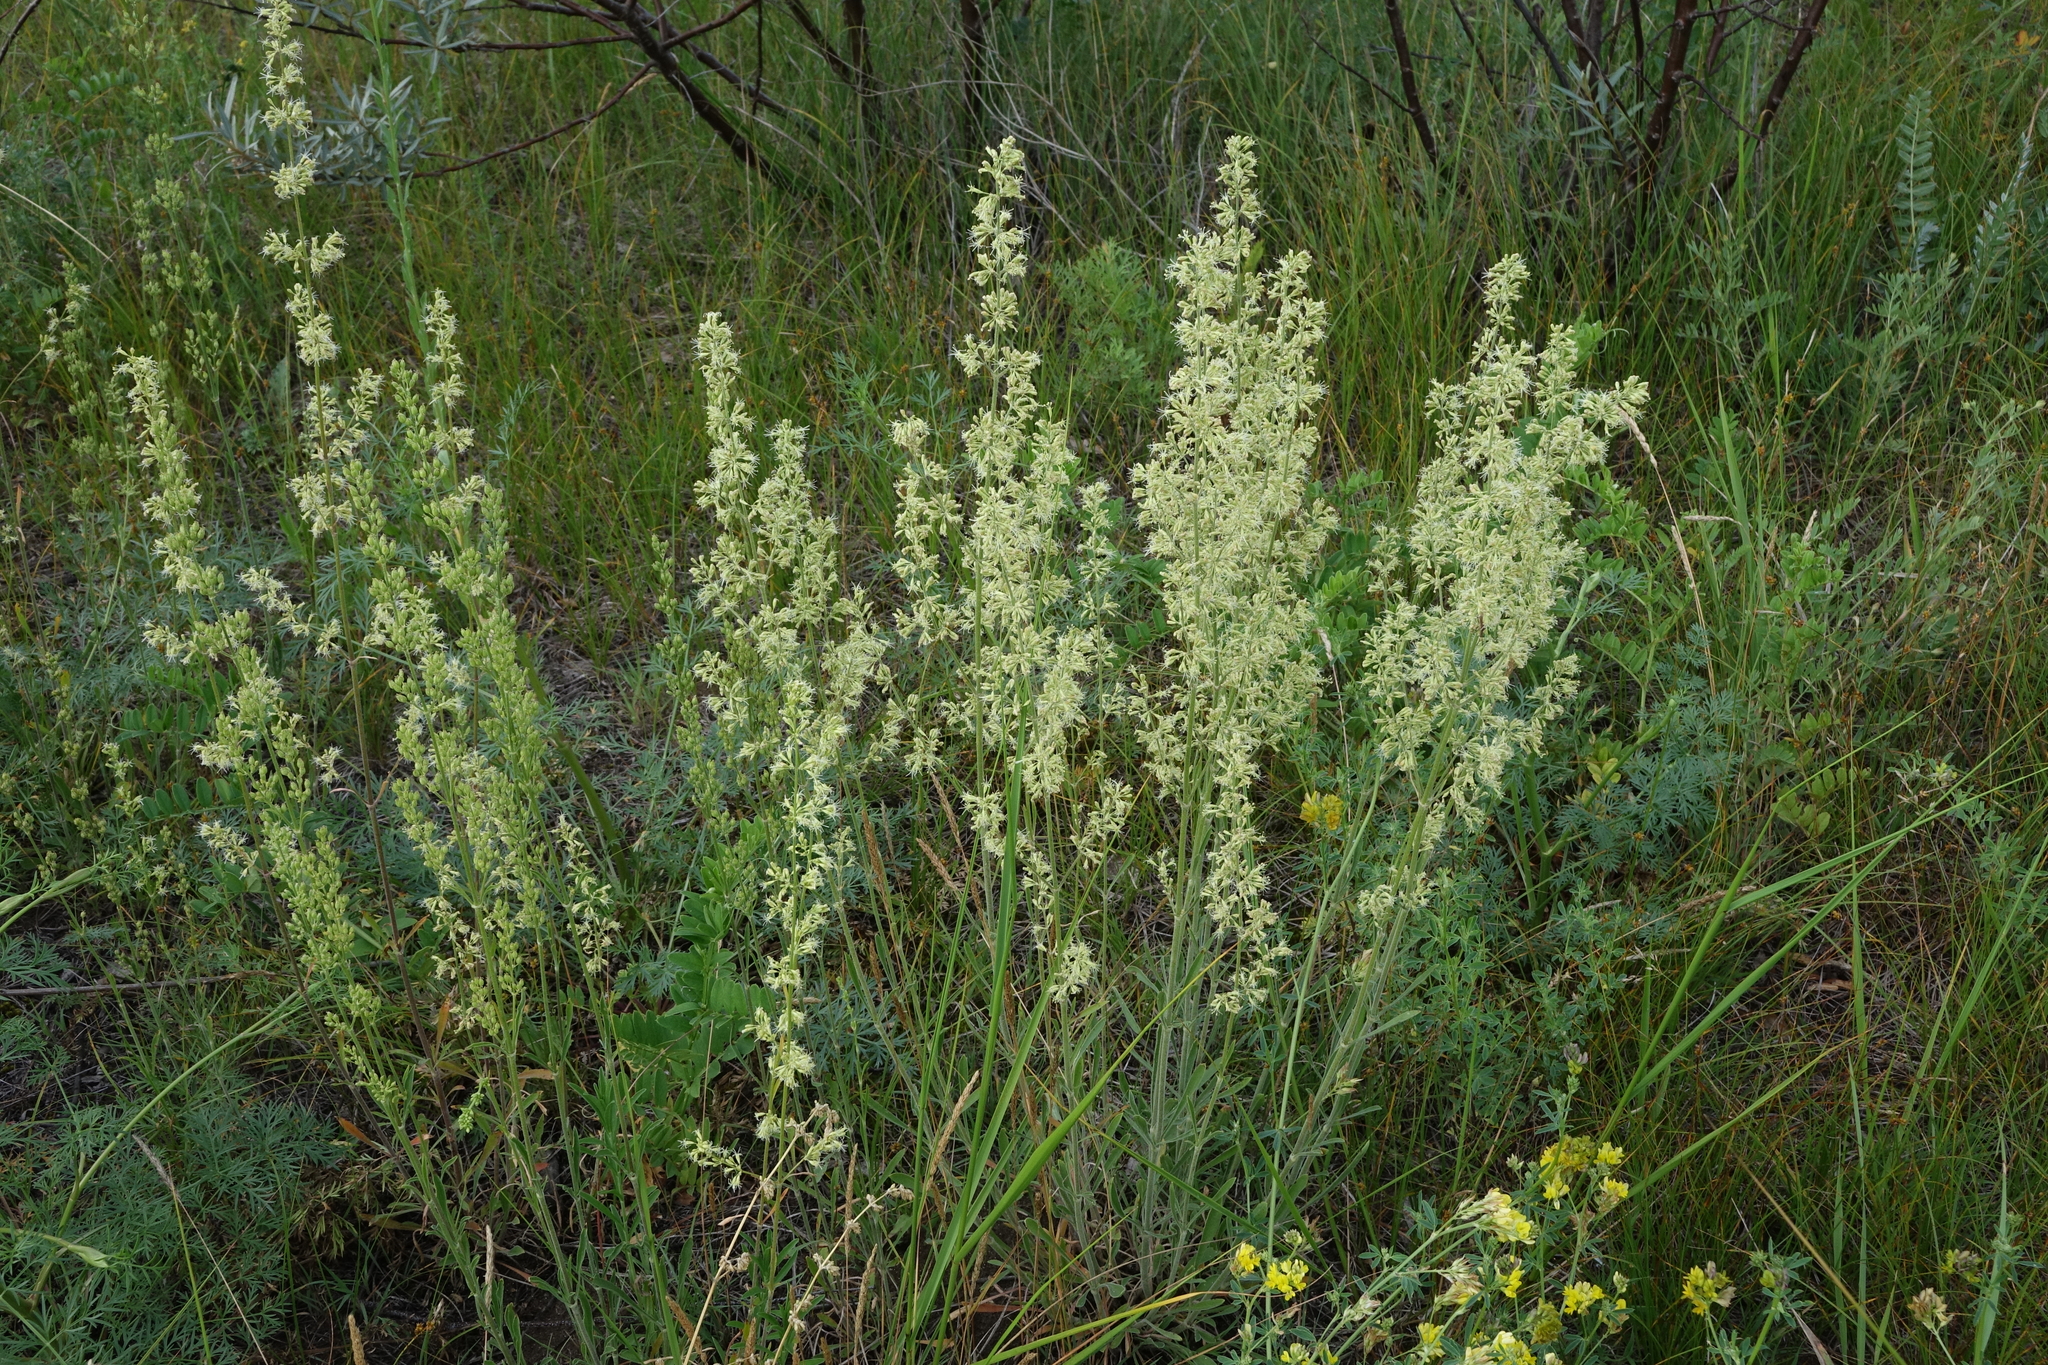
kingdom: Plantae
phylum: Tracheophyta
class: Magnoliopsida
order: Caryophyllales
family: Caryophyllaceae
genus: Silene
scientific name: Silene borysthenica
